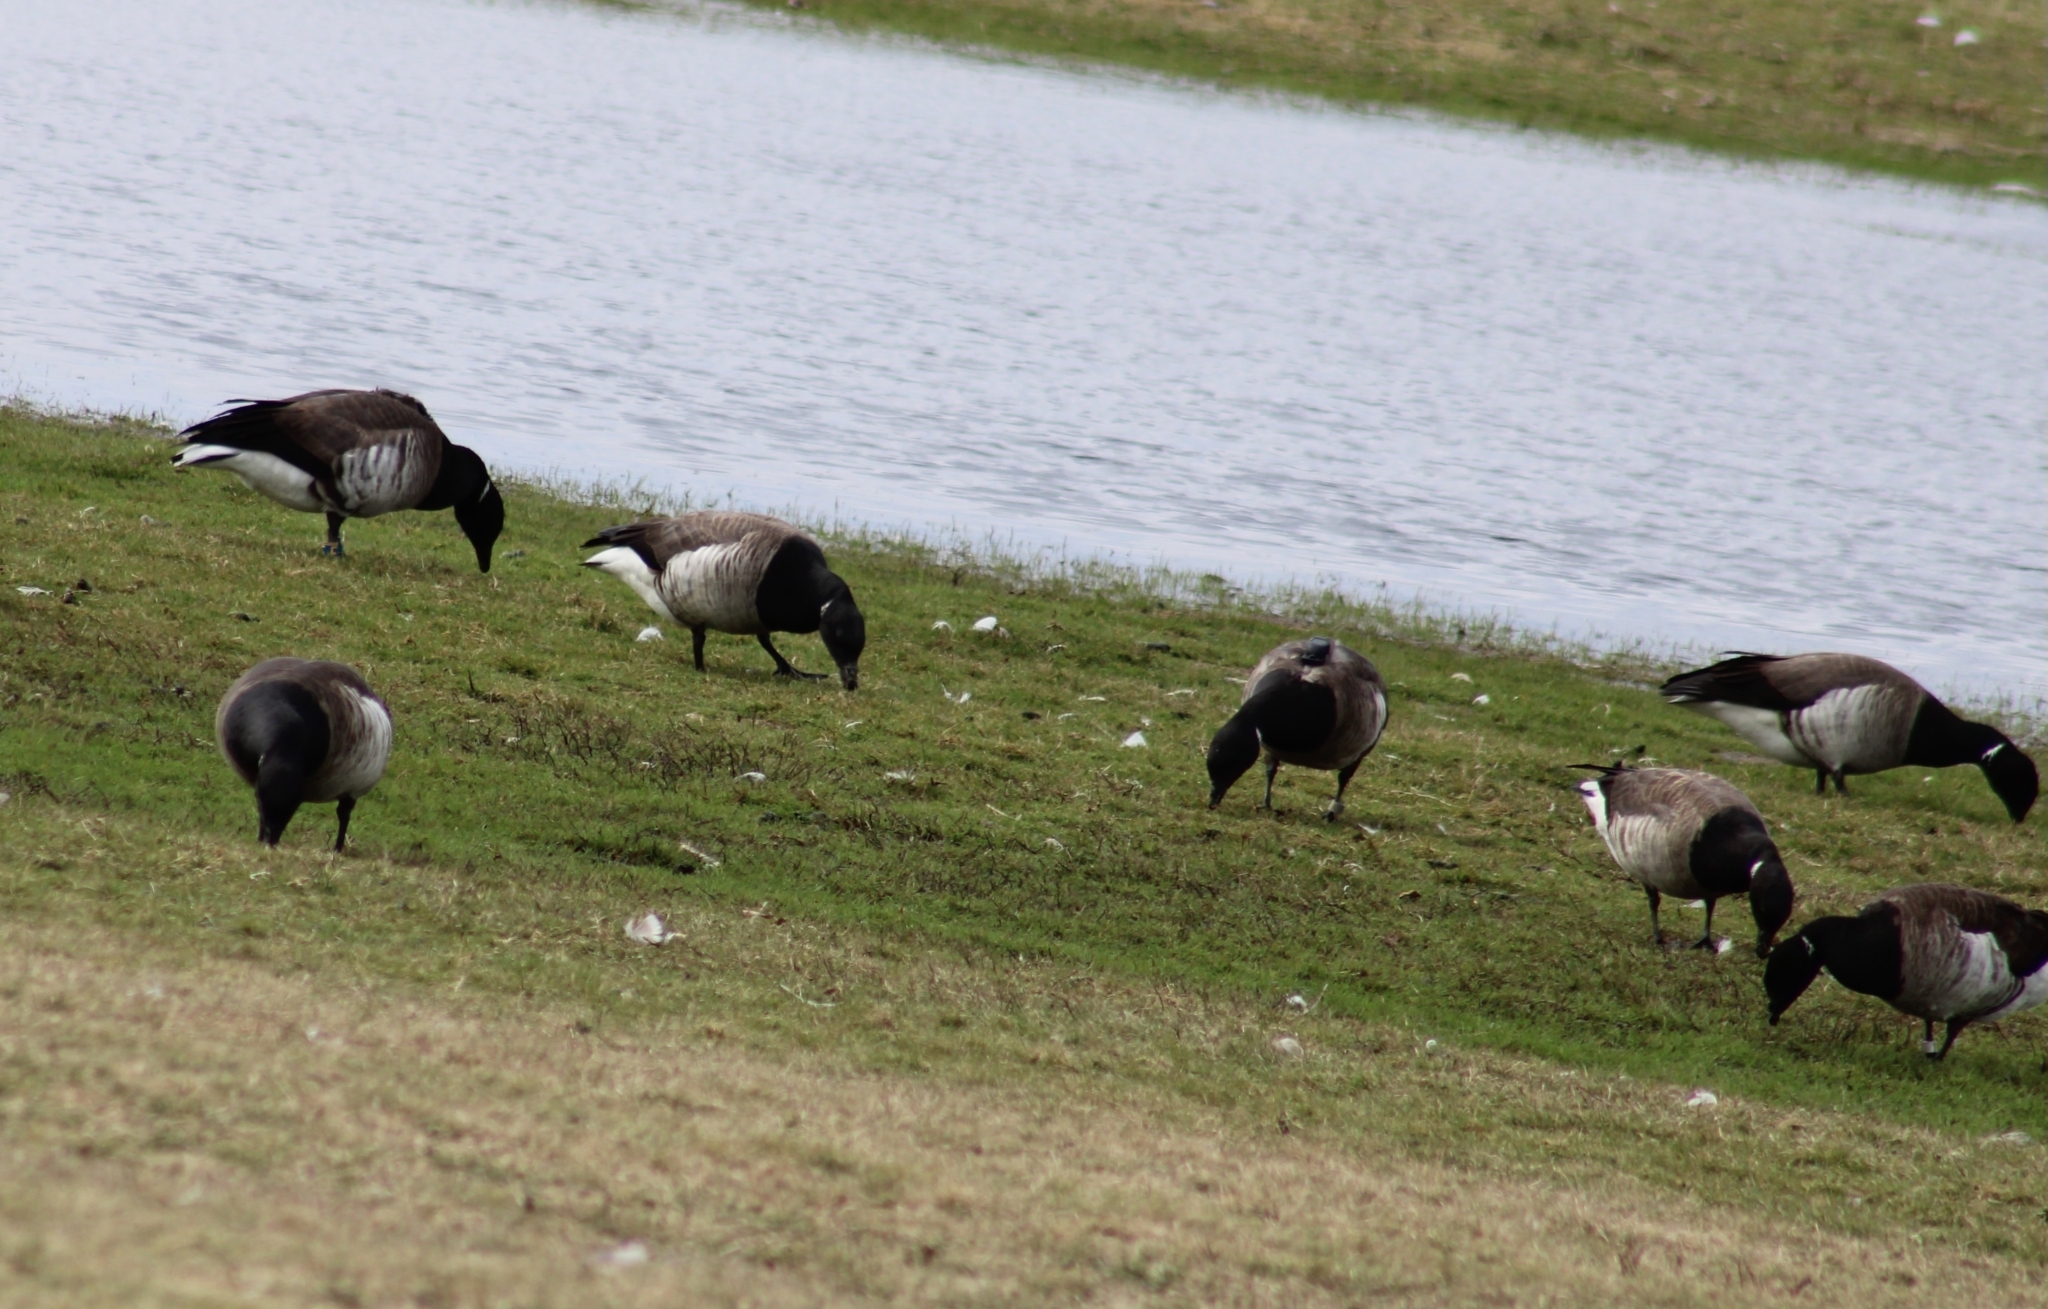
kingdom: Animalia
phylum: Chordata
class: Aves
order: Anseriformes
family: Anatidae
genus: Branta
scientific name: Branta bernicla
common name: Brant goose
